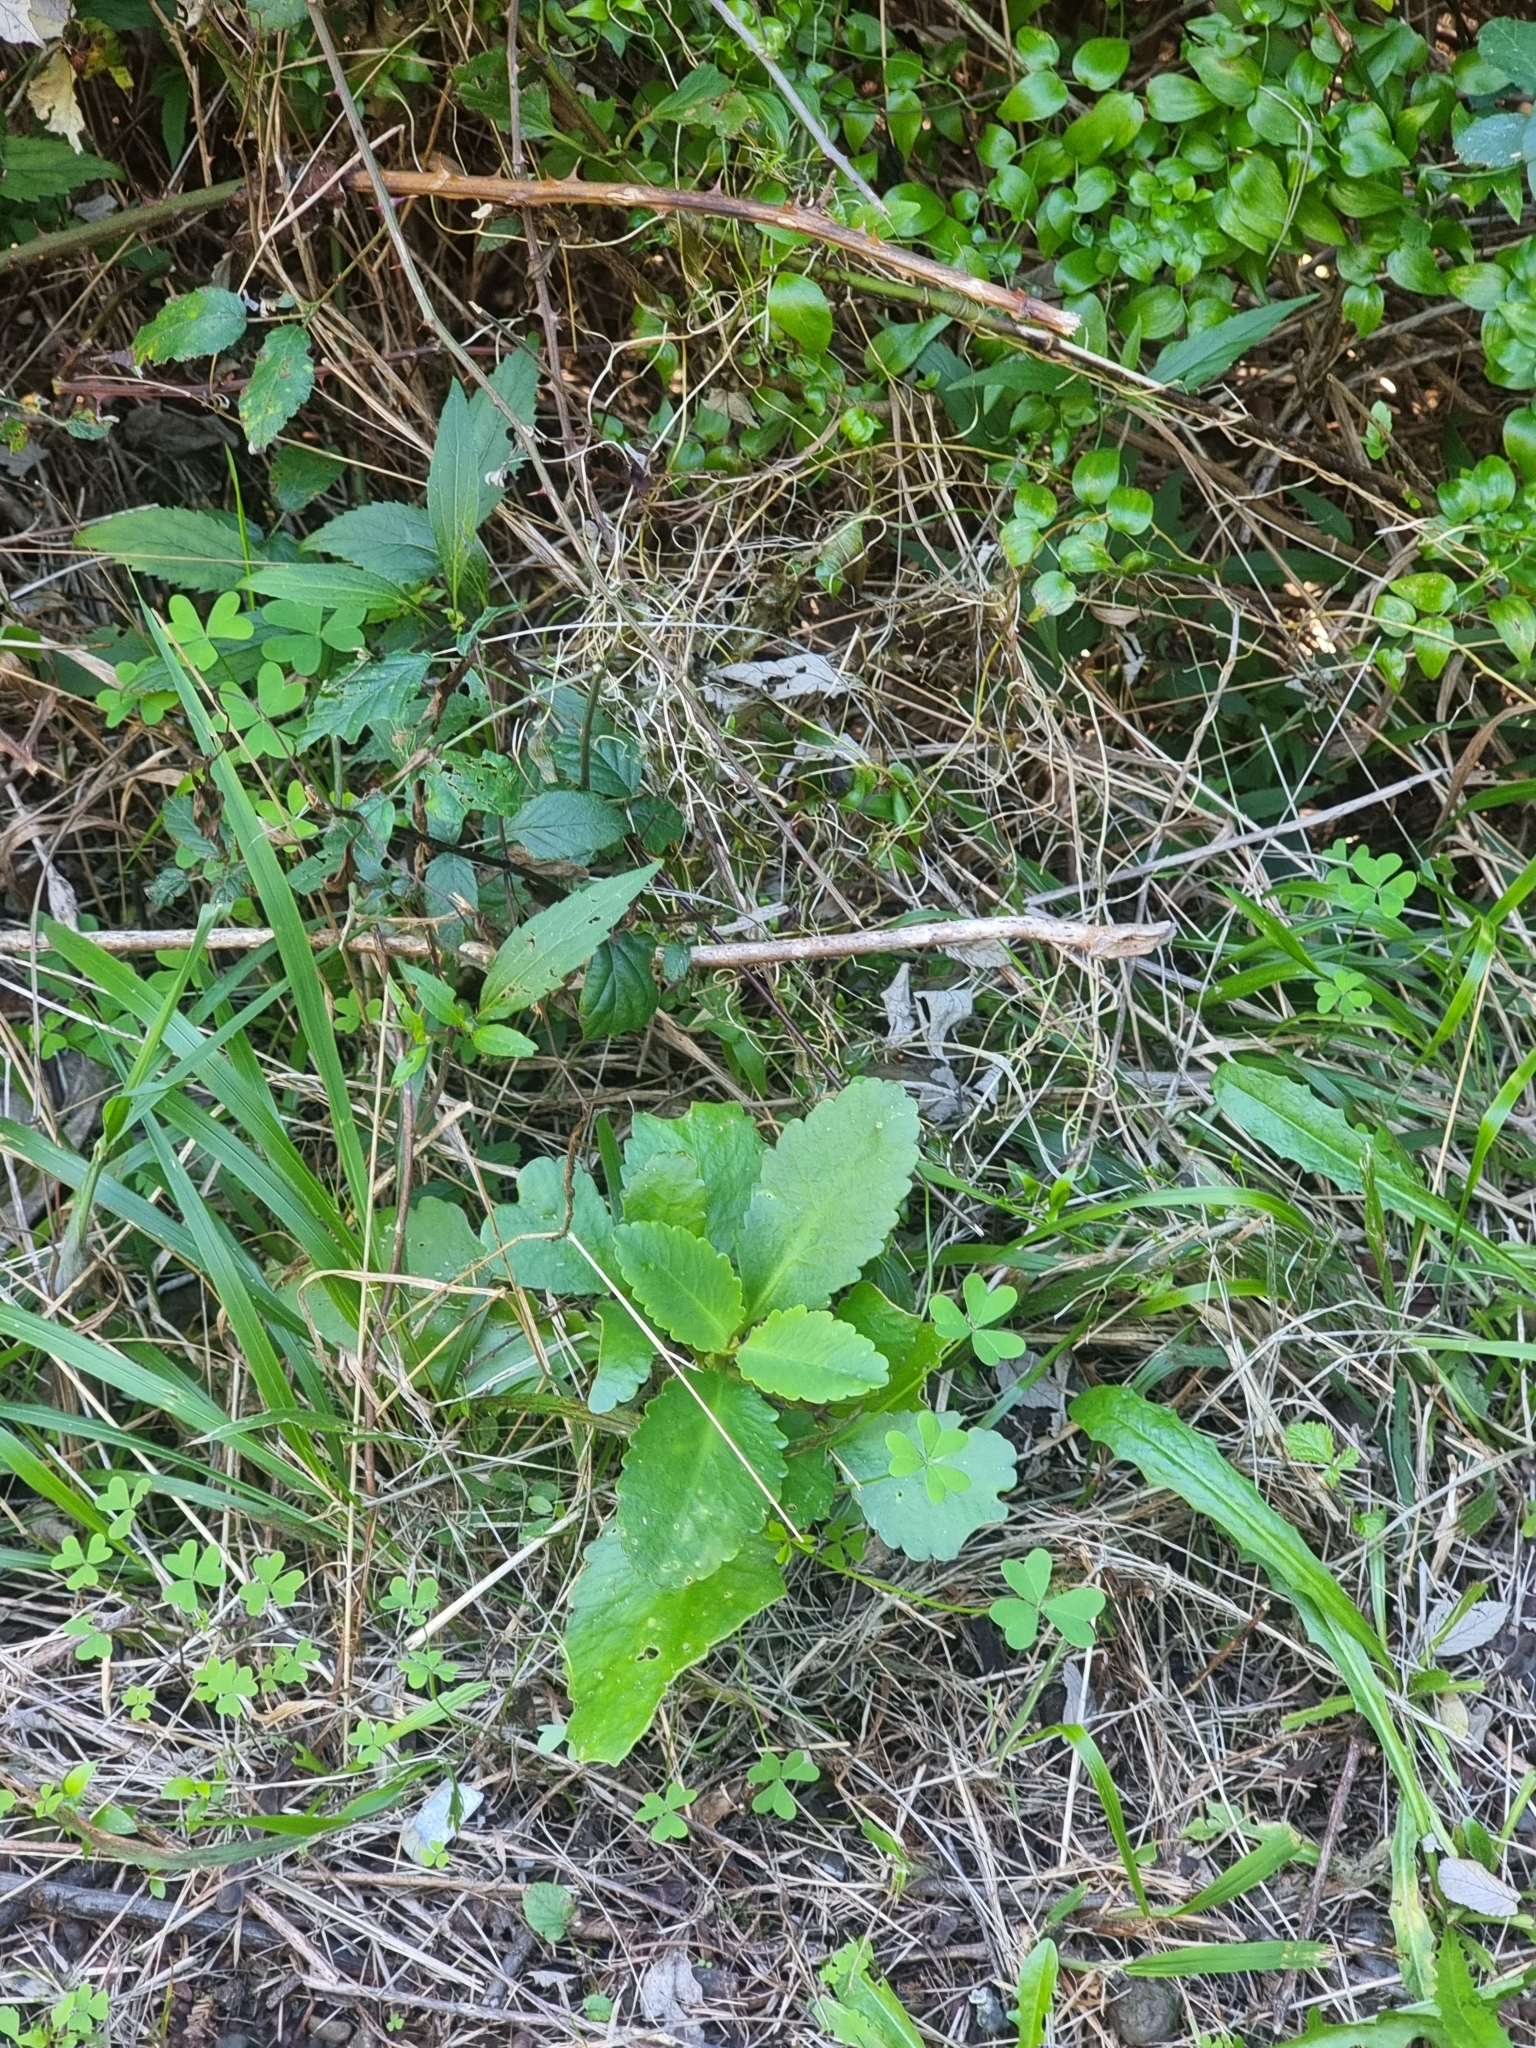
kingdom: Plantae
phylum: Tracheophyta
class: Magnoliopsida
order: Saxifragales
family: Crassulaceae
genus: Kalanchoe
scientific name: Kalanchoe pinnata
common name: Cathedral bells
